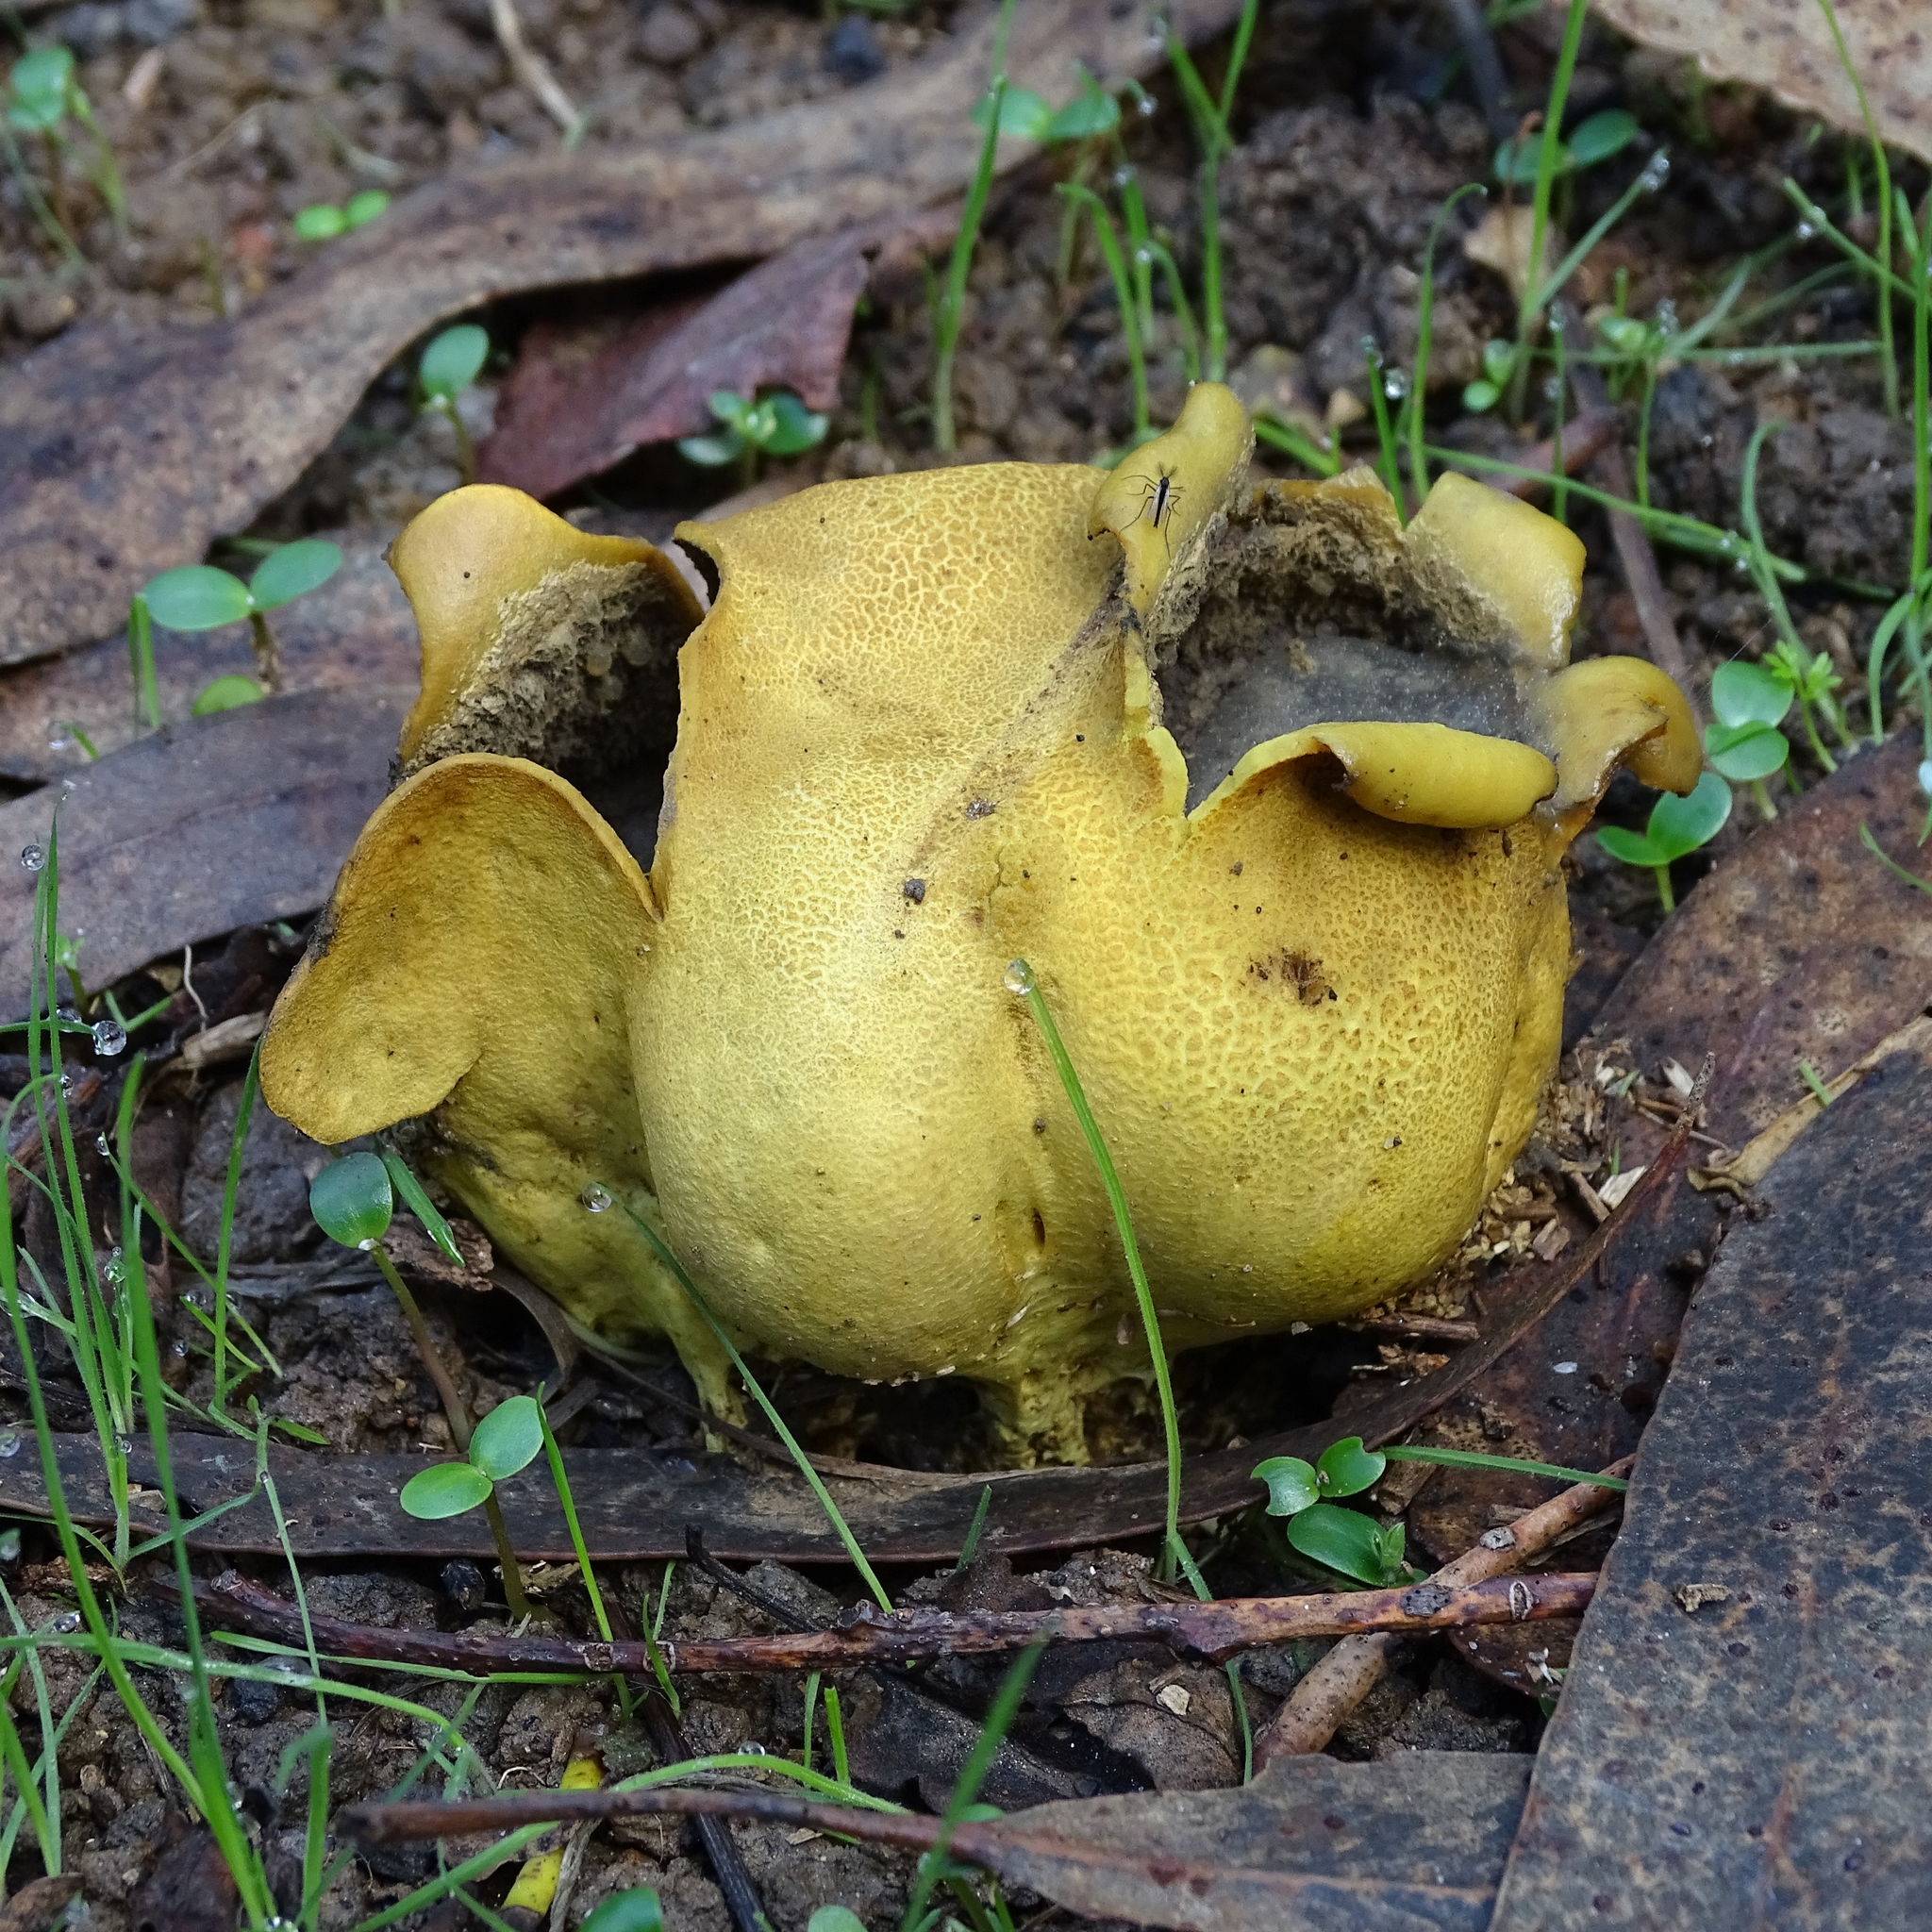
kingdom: Fungi
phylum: Basidiomycota
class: Agaricomycetes
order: Boletales
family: Sclerodermataceae
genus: Scleroderma
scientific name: Scleroderma citrinum
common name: Common earthball
